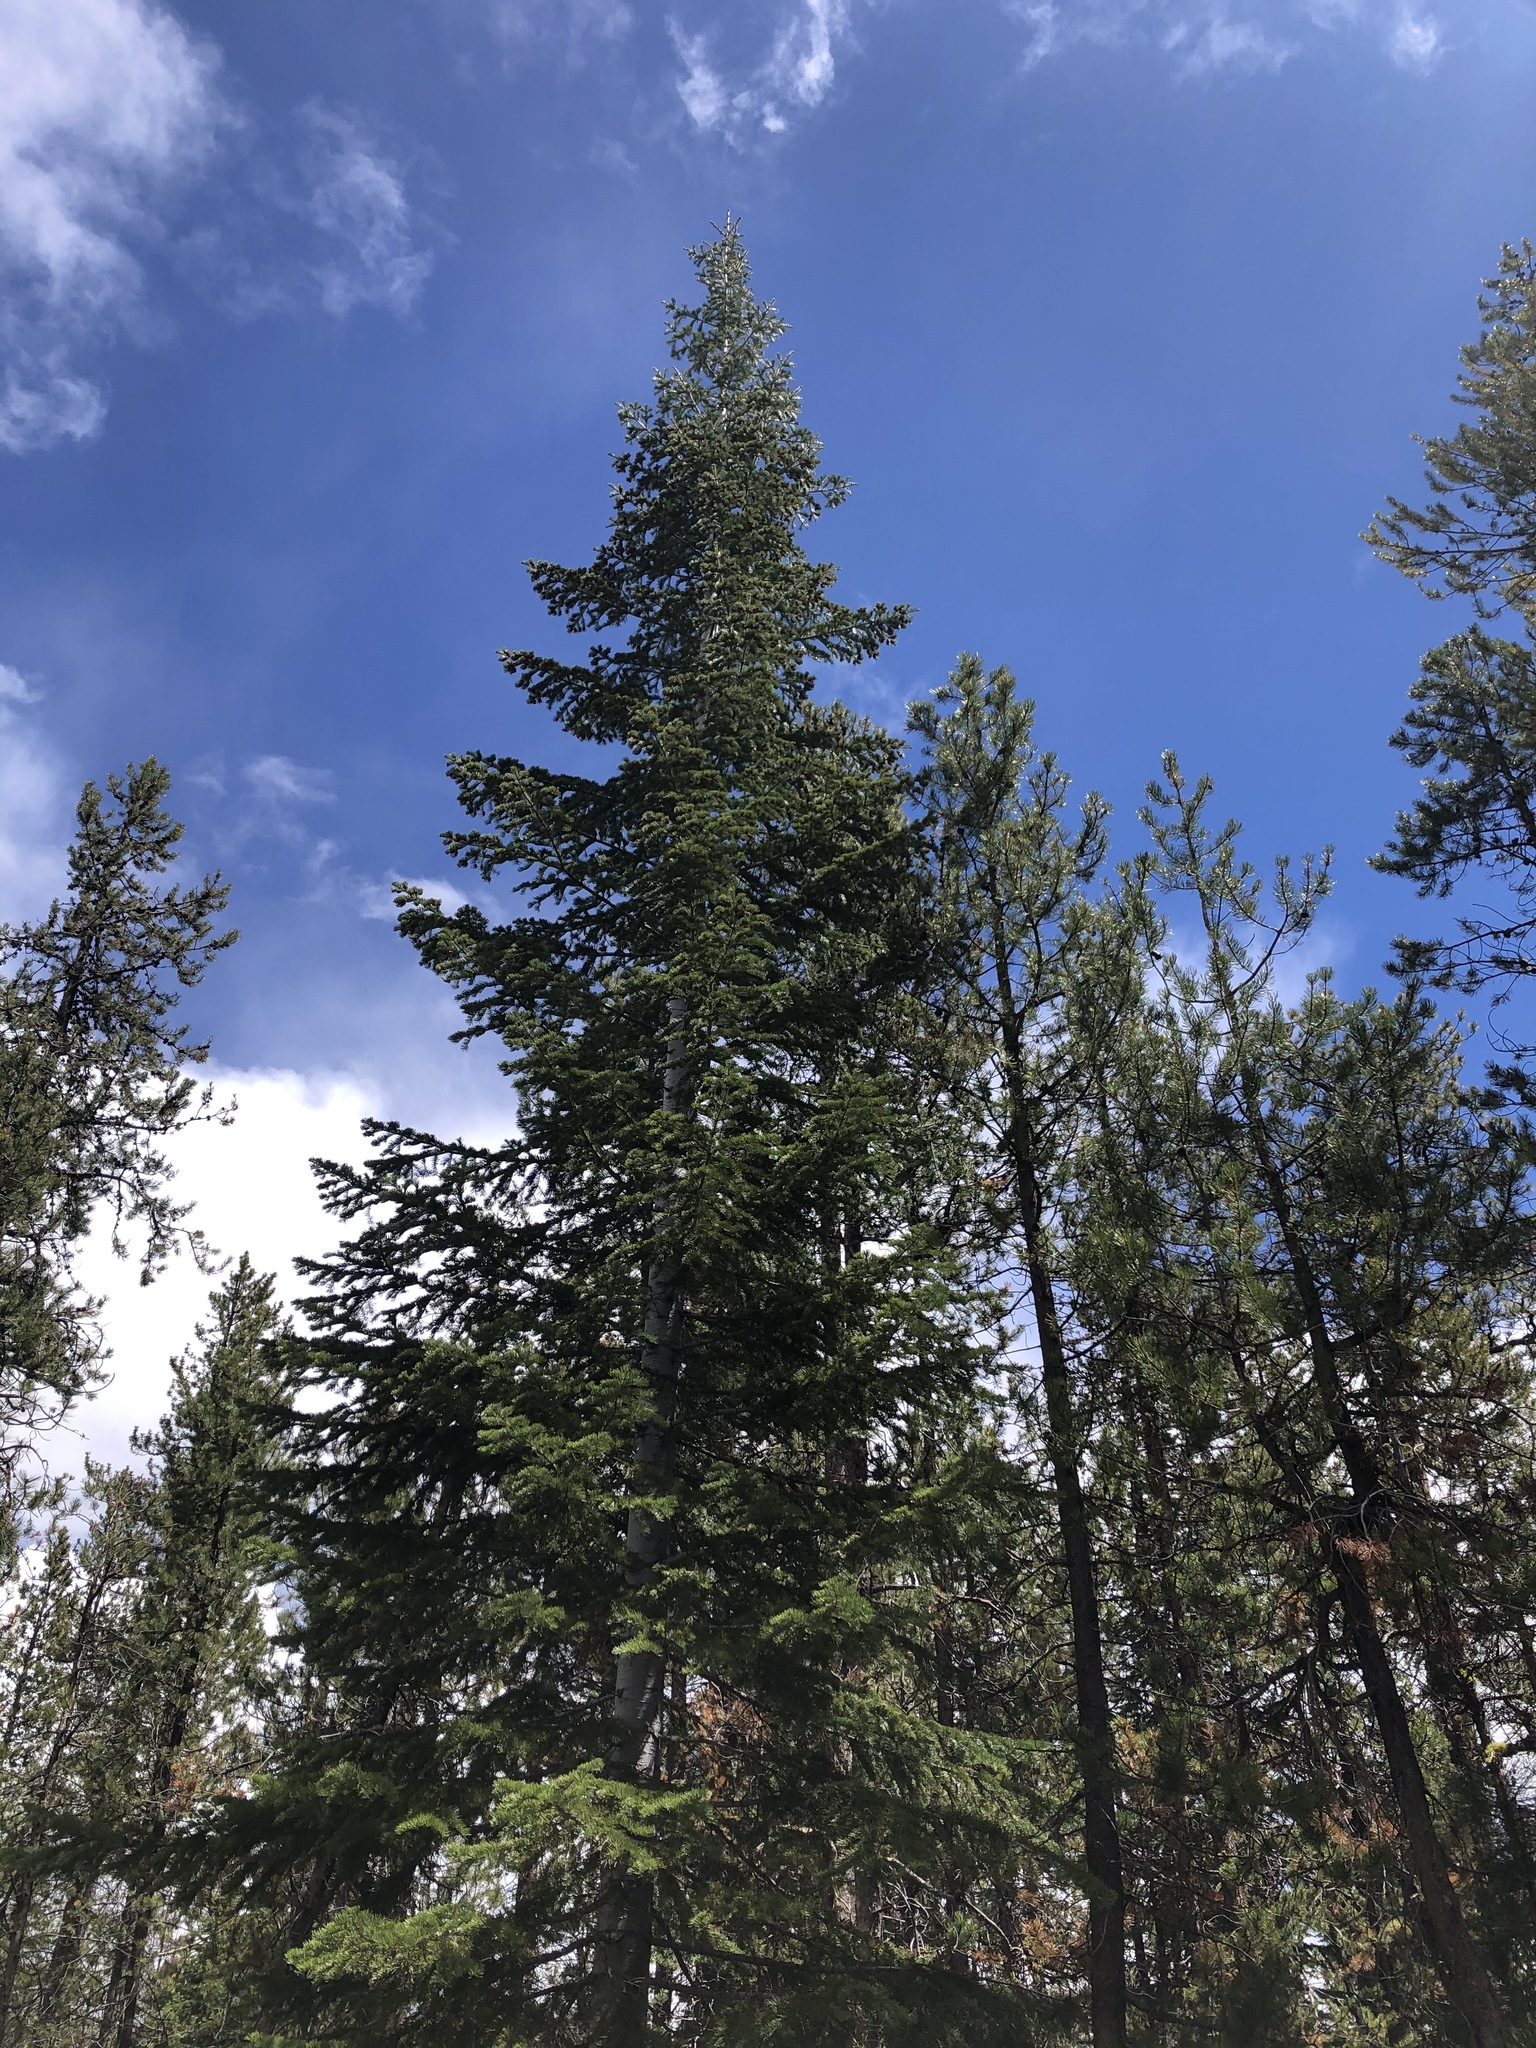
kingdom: Plantae
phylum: Tracheophyta
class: Pinopsida
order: Pinales
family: Pinaceae
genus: Abies
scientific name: Abies concolor
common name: Colorado fir
